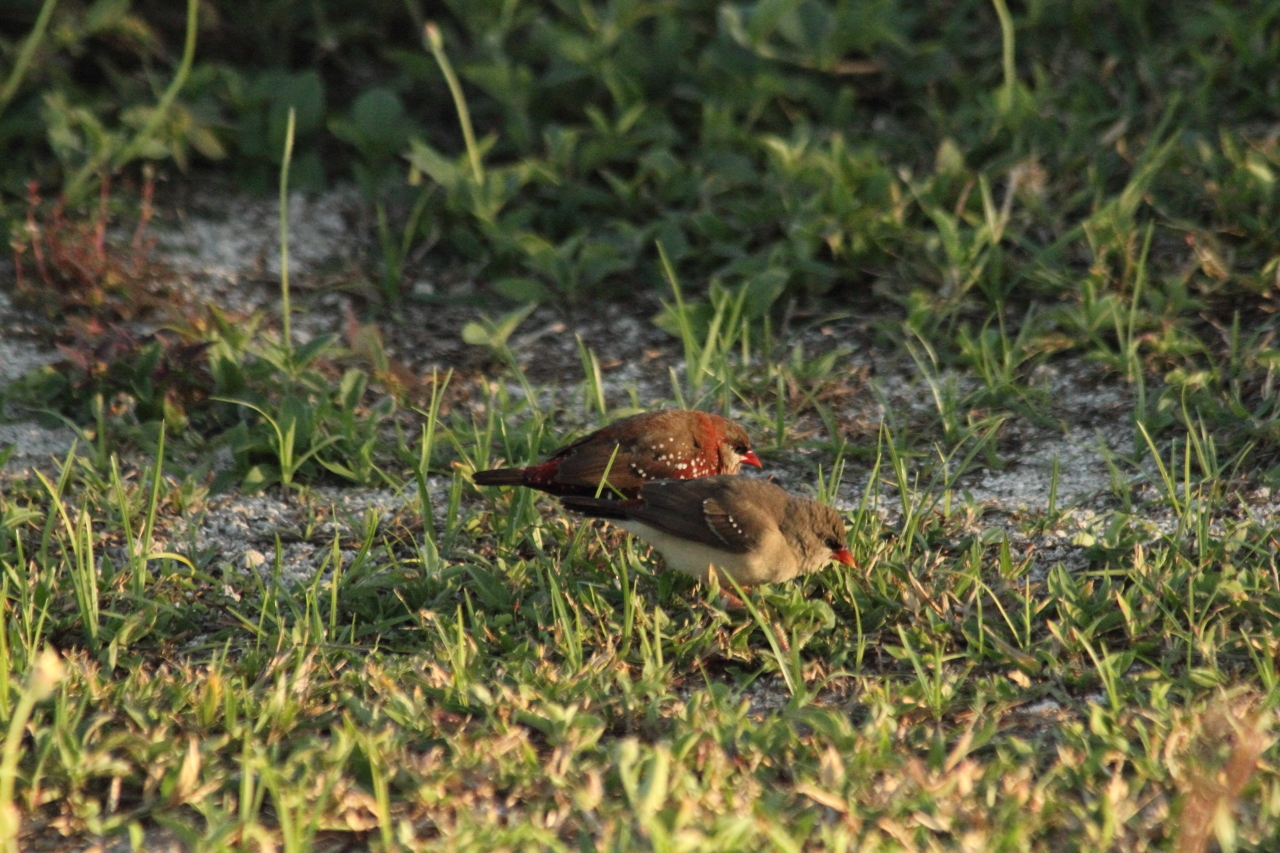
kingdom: Animalia
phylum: Chordata
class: Aves
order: Passeriformes
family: Estrildidae
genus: Amandava
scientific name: Amandava amandava
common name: Red avadavat
